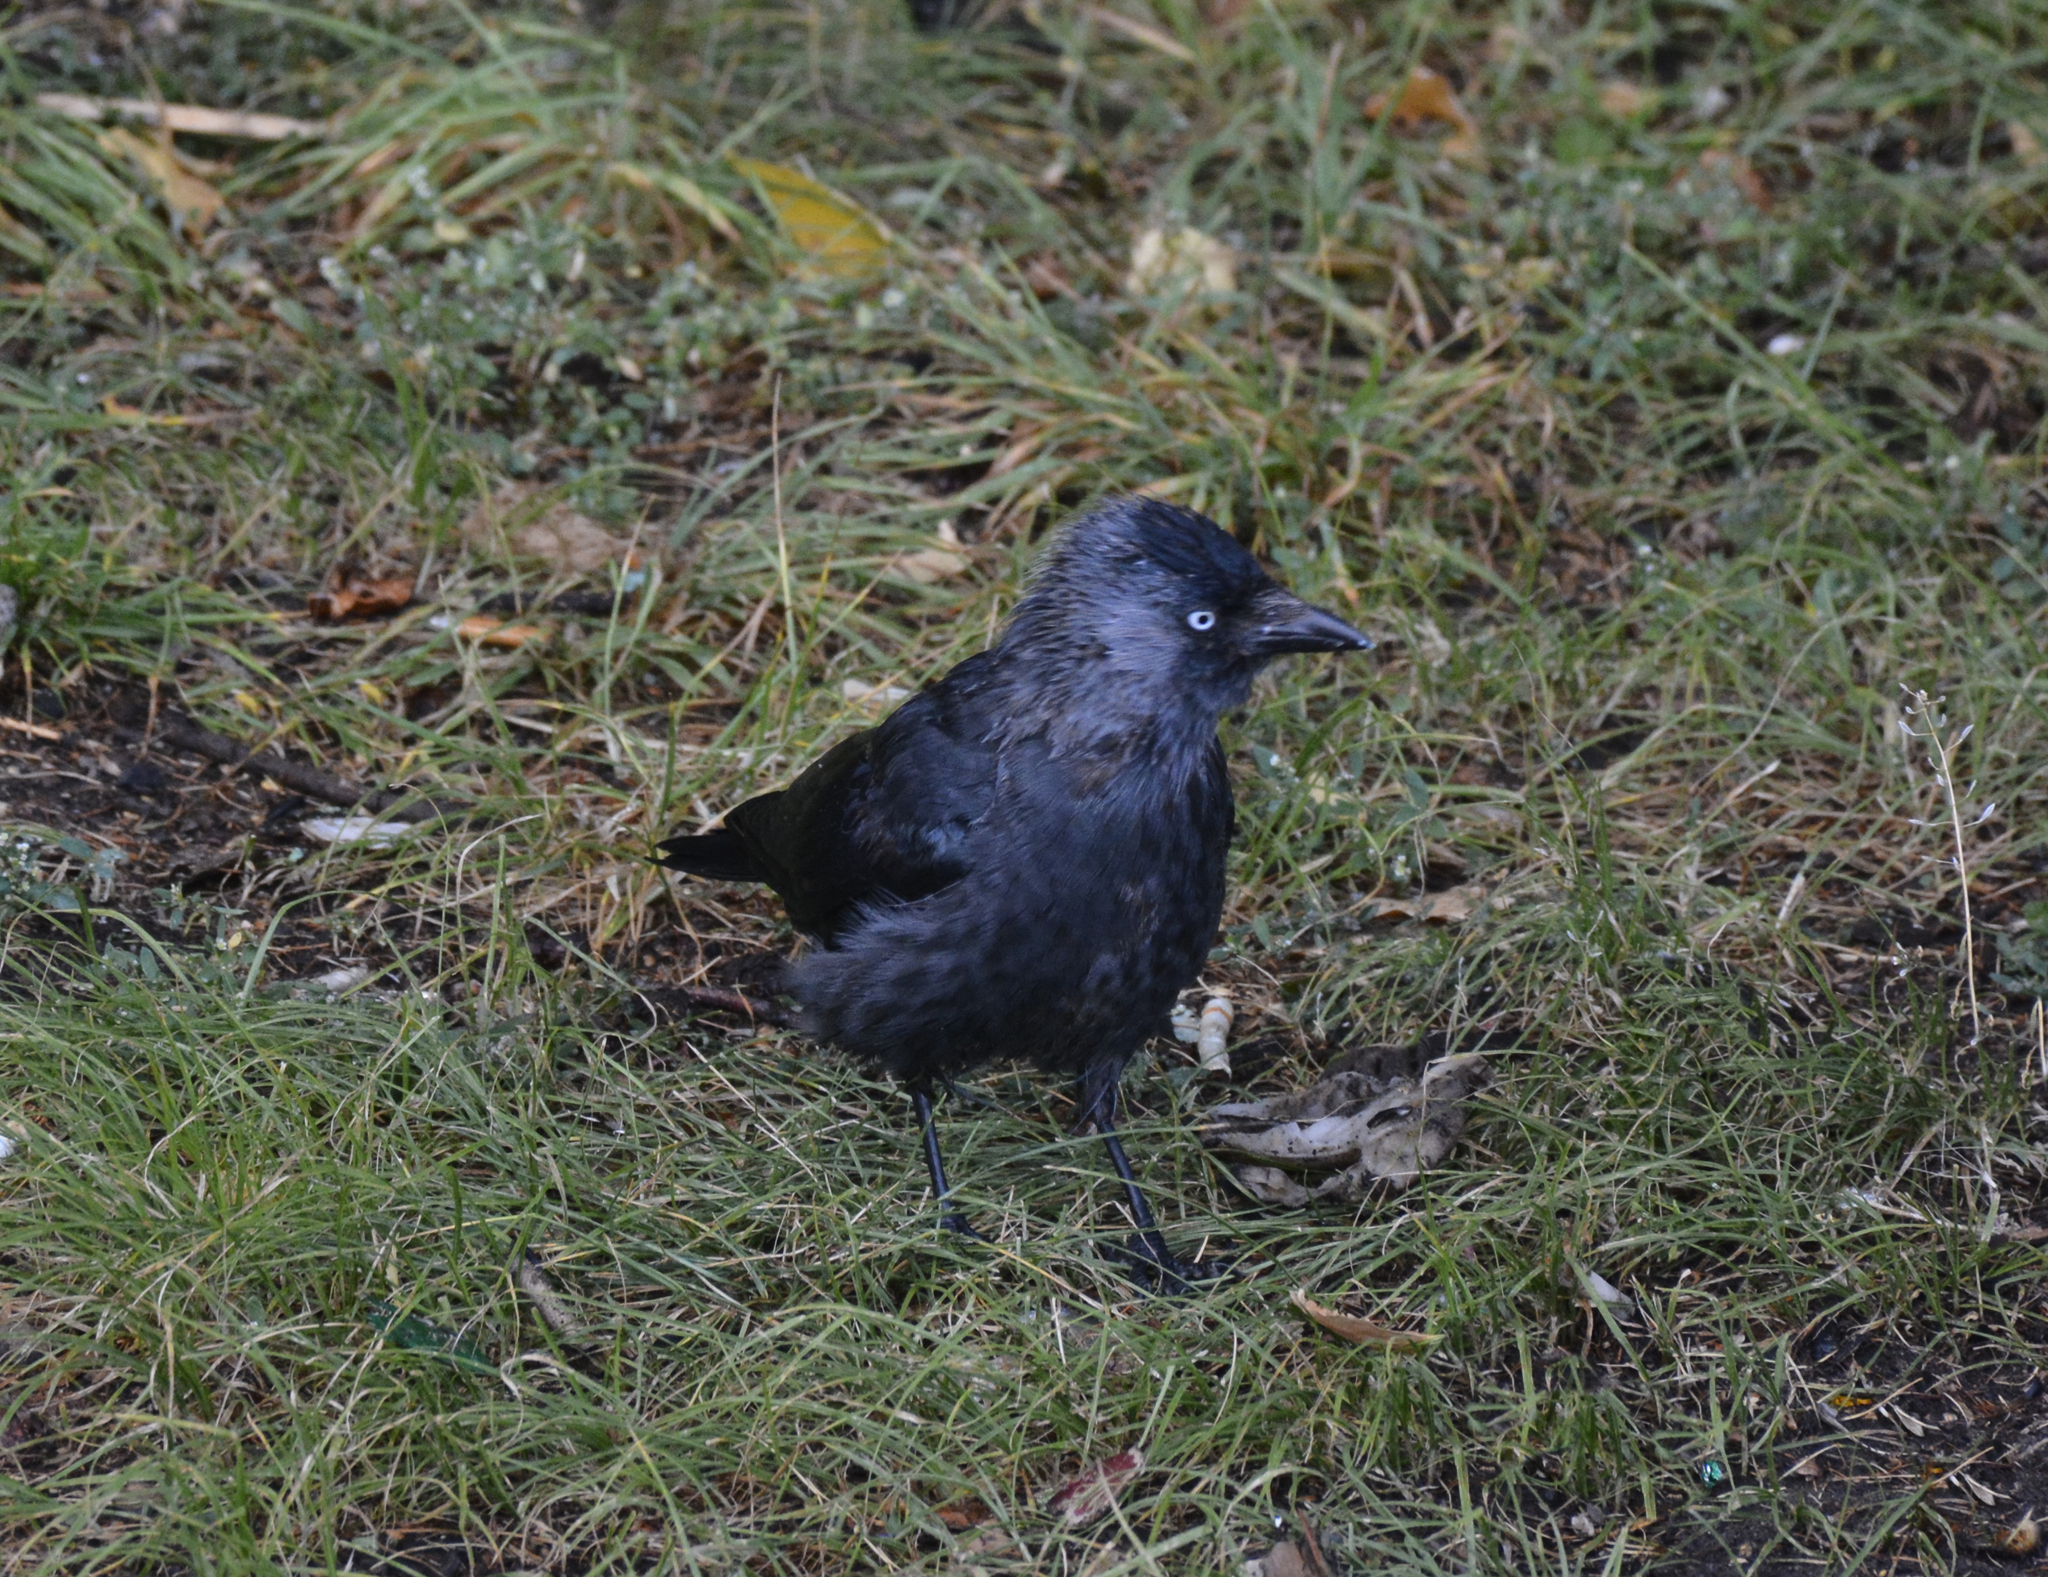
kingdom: Animalia
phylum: Chordata
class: Aves
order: Passeriformes
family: Corvidae
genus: Coloeus
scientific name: Coloeus monedula
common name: Western jackdaw
